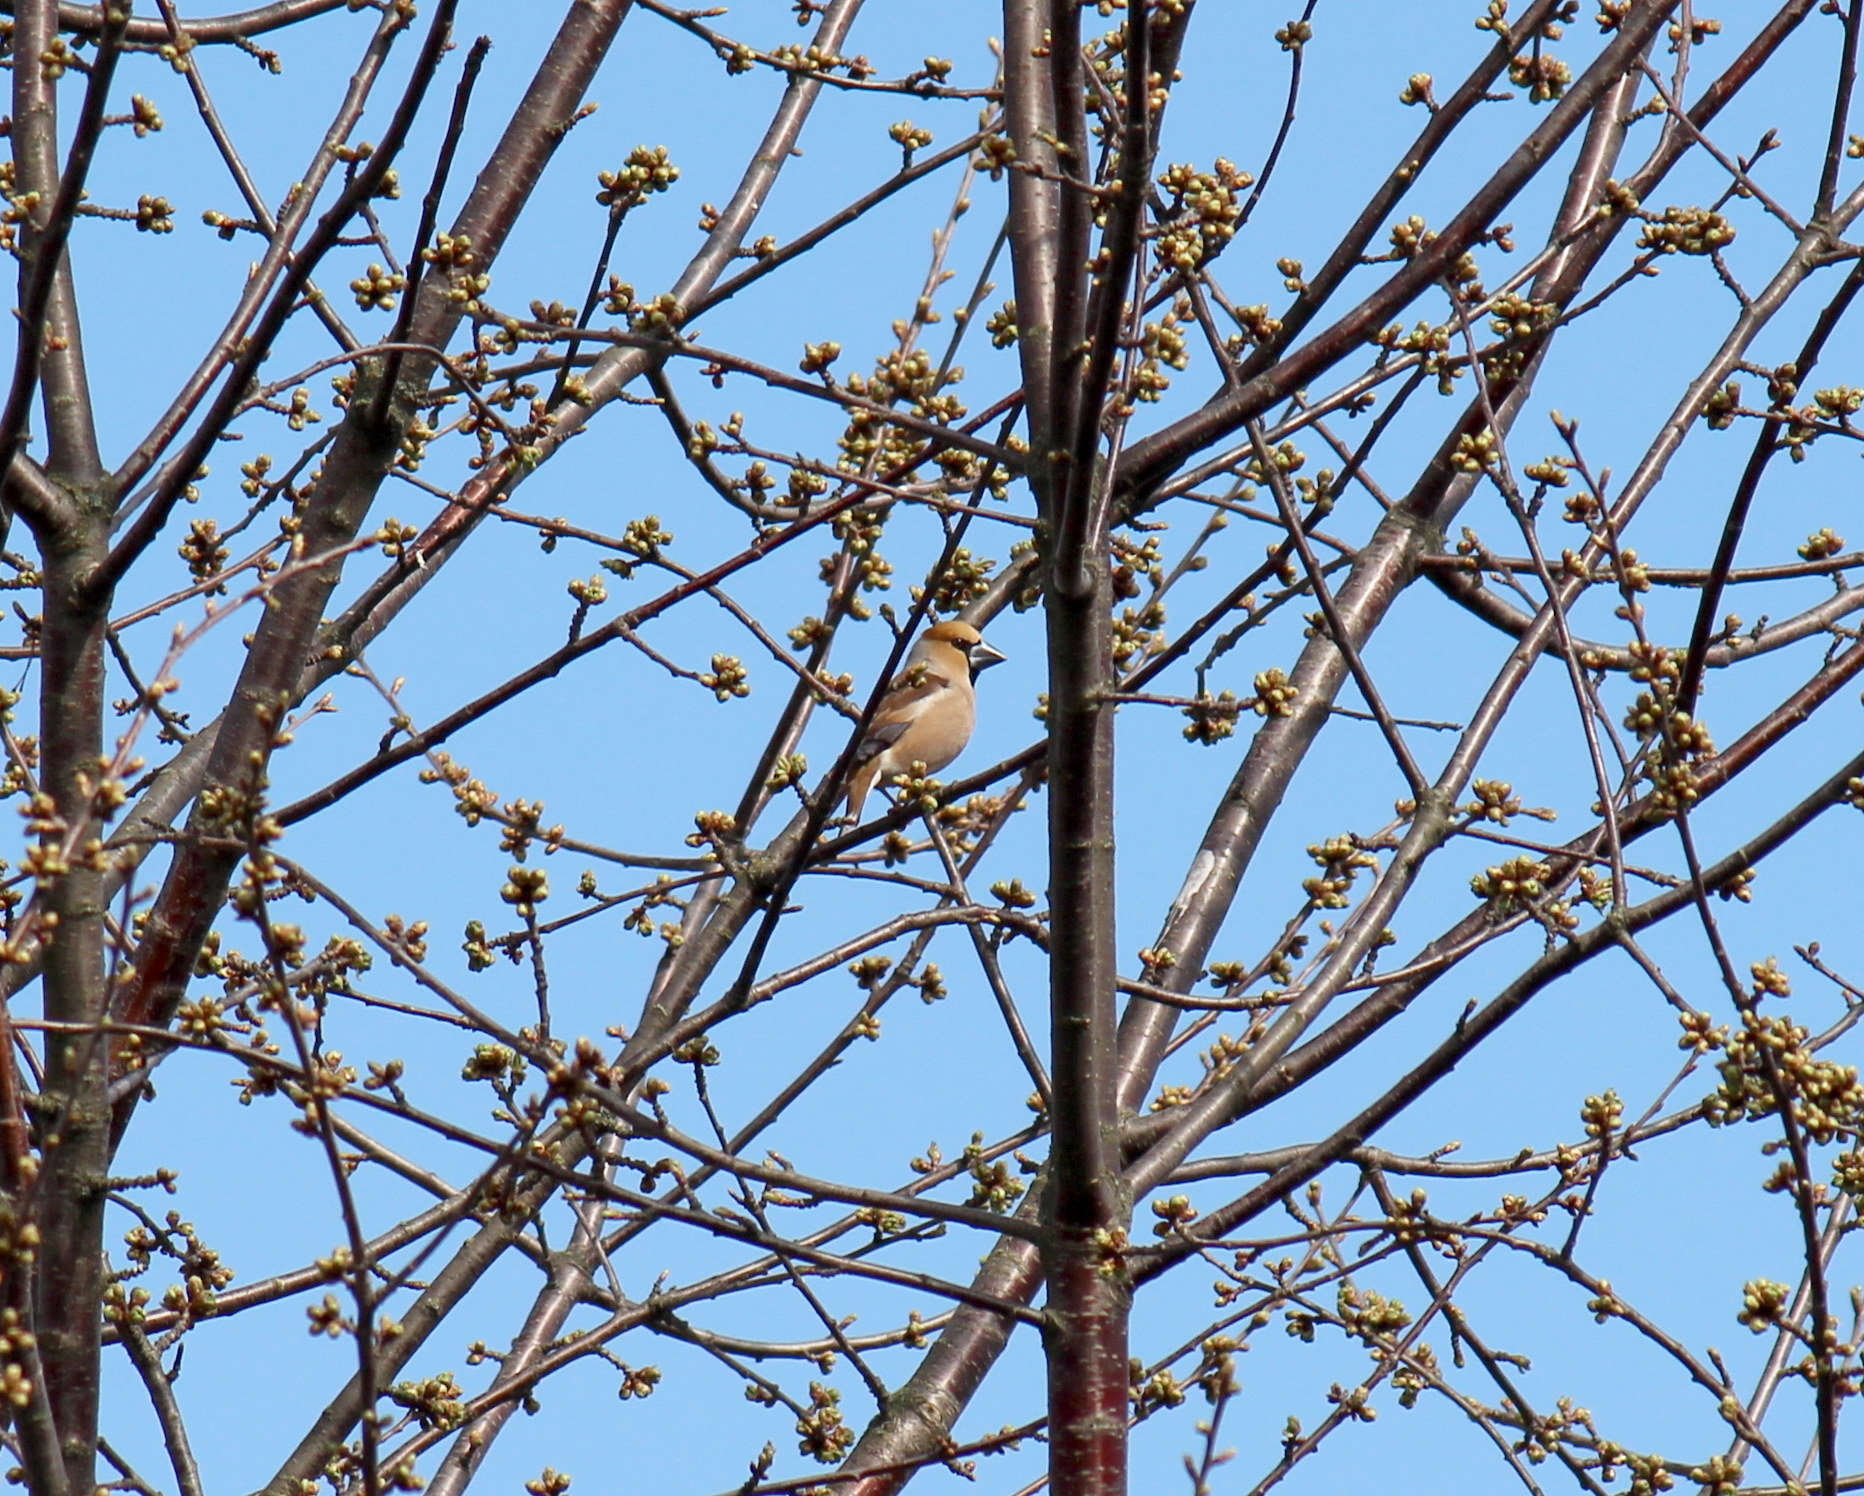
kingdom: Animalia
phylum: Chordata
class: Aves
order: Passeriformes
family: Fringillidae
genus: Coccothraustes
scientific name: Coccothraustes coccothraustes
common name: Hawfinch
